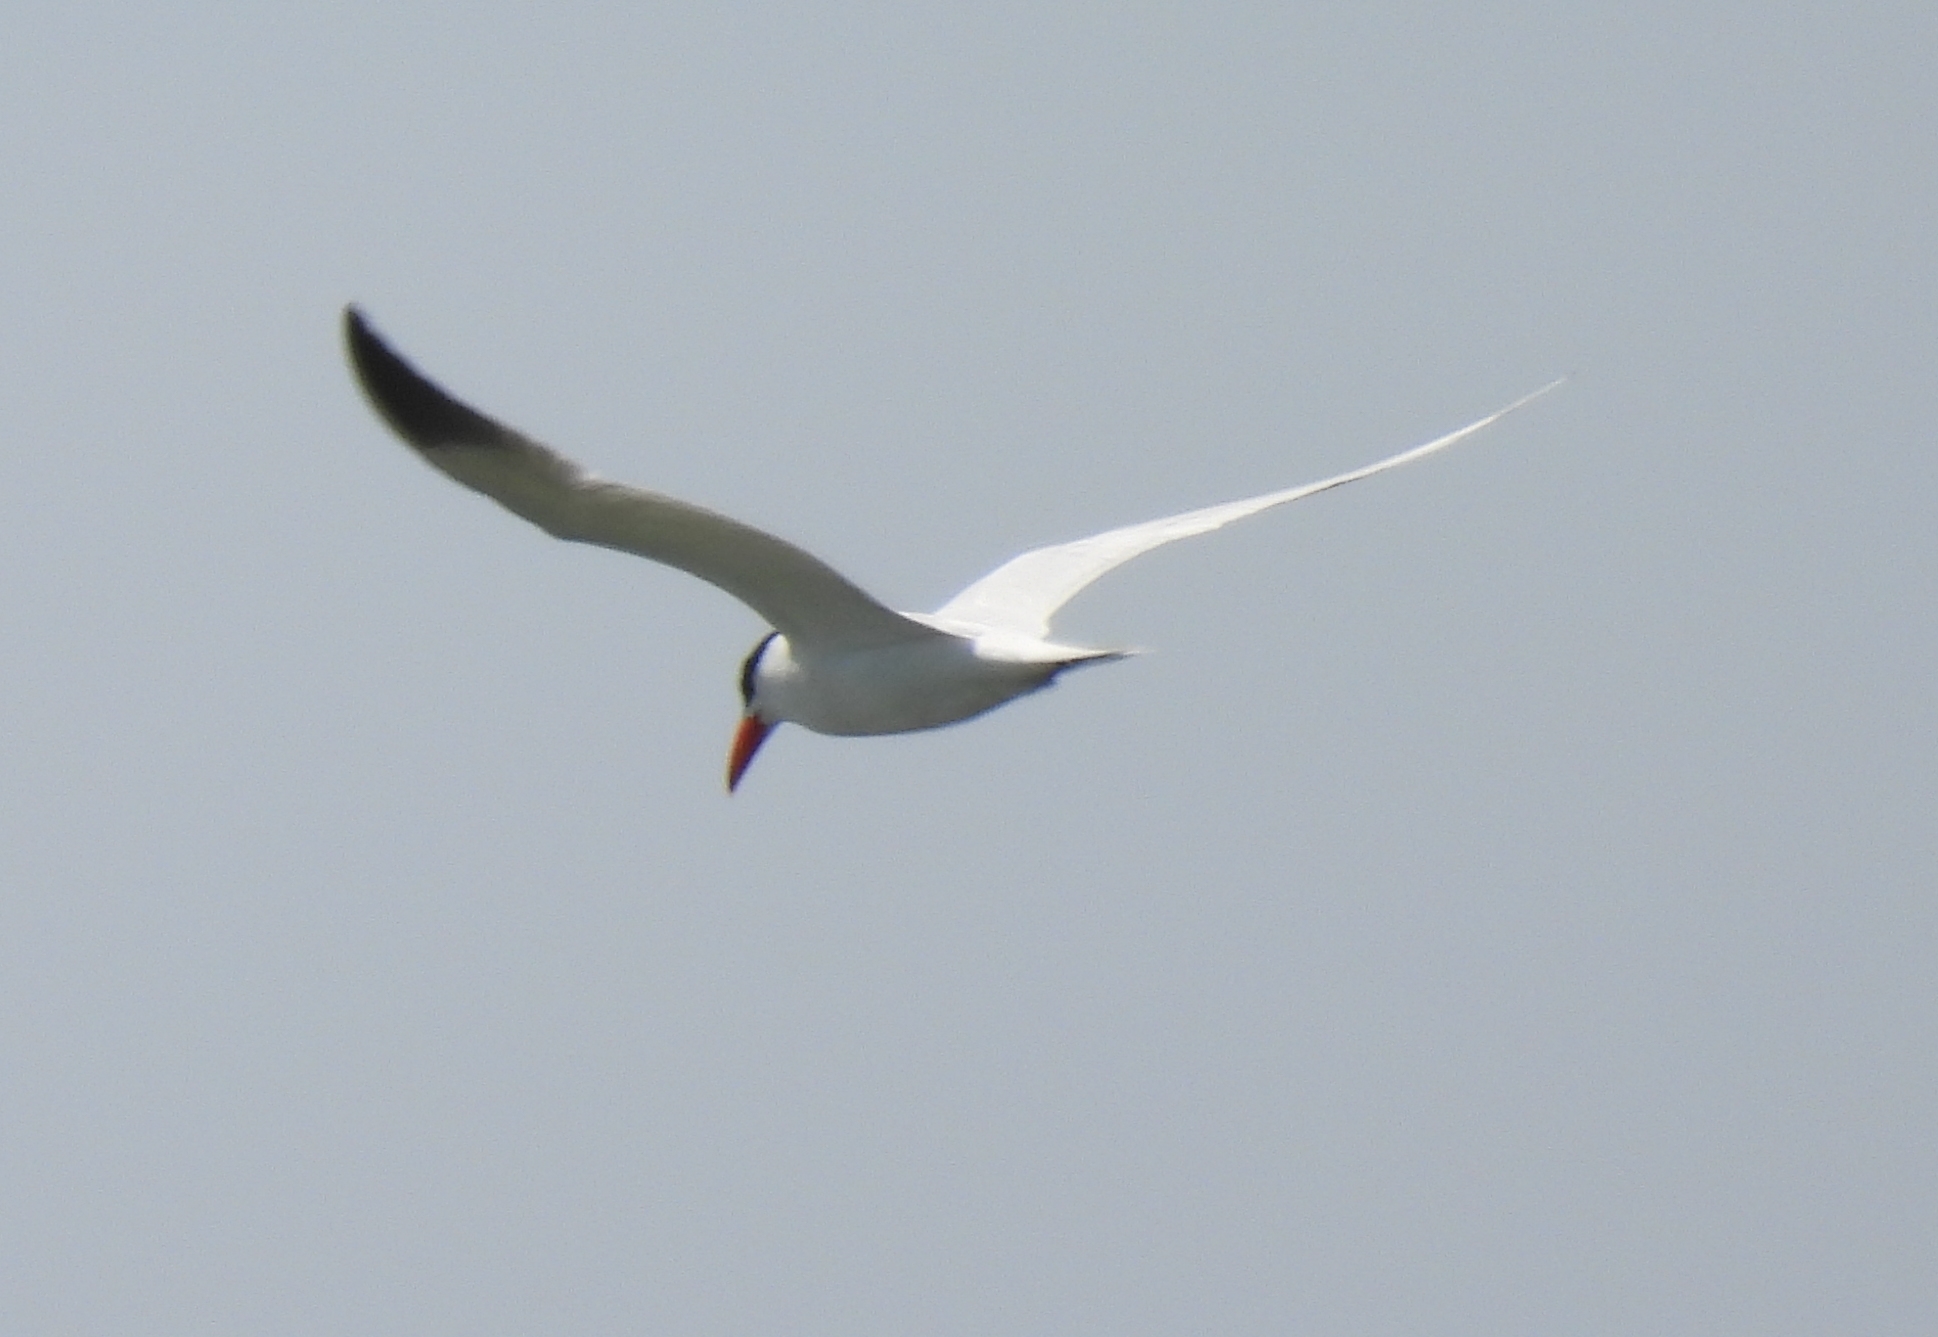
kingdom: Animalia
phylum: Chordata
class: Aves
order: Charadriiformes
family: Laridae
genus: Hydroprogne
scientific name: Hydroprogne caspia
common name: Caspian tern
